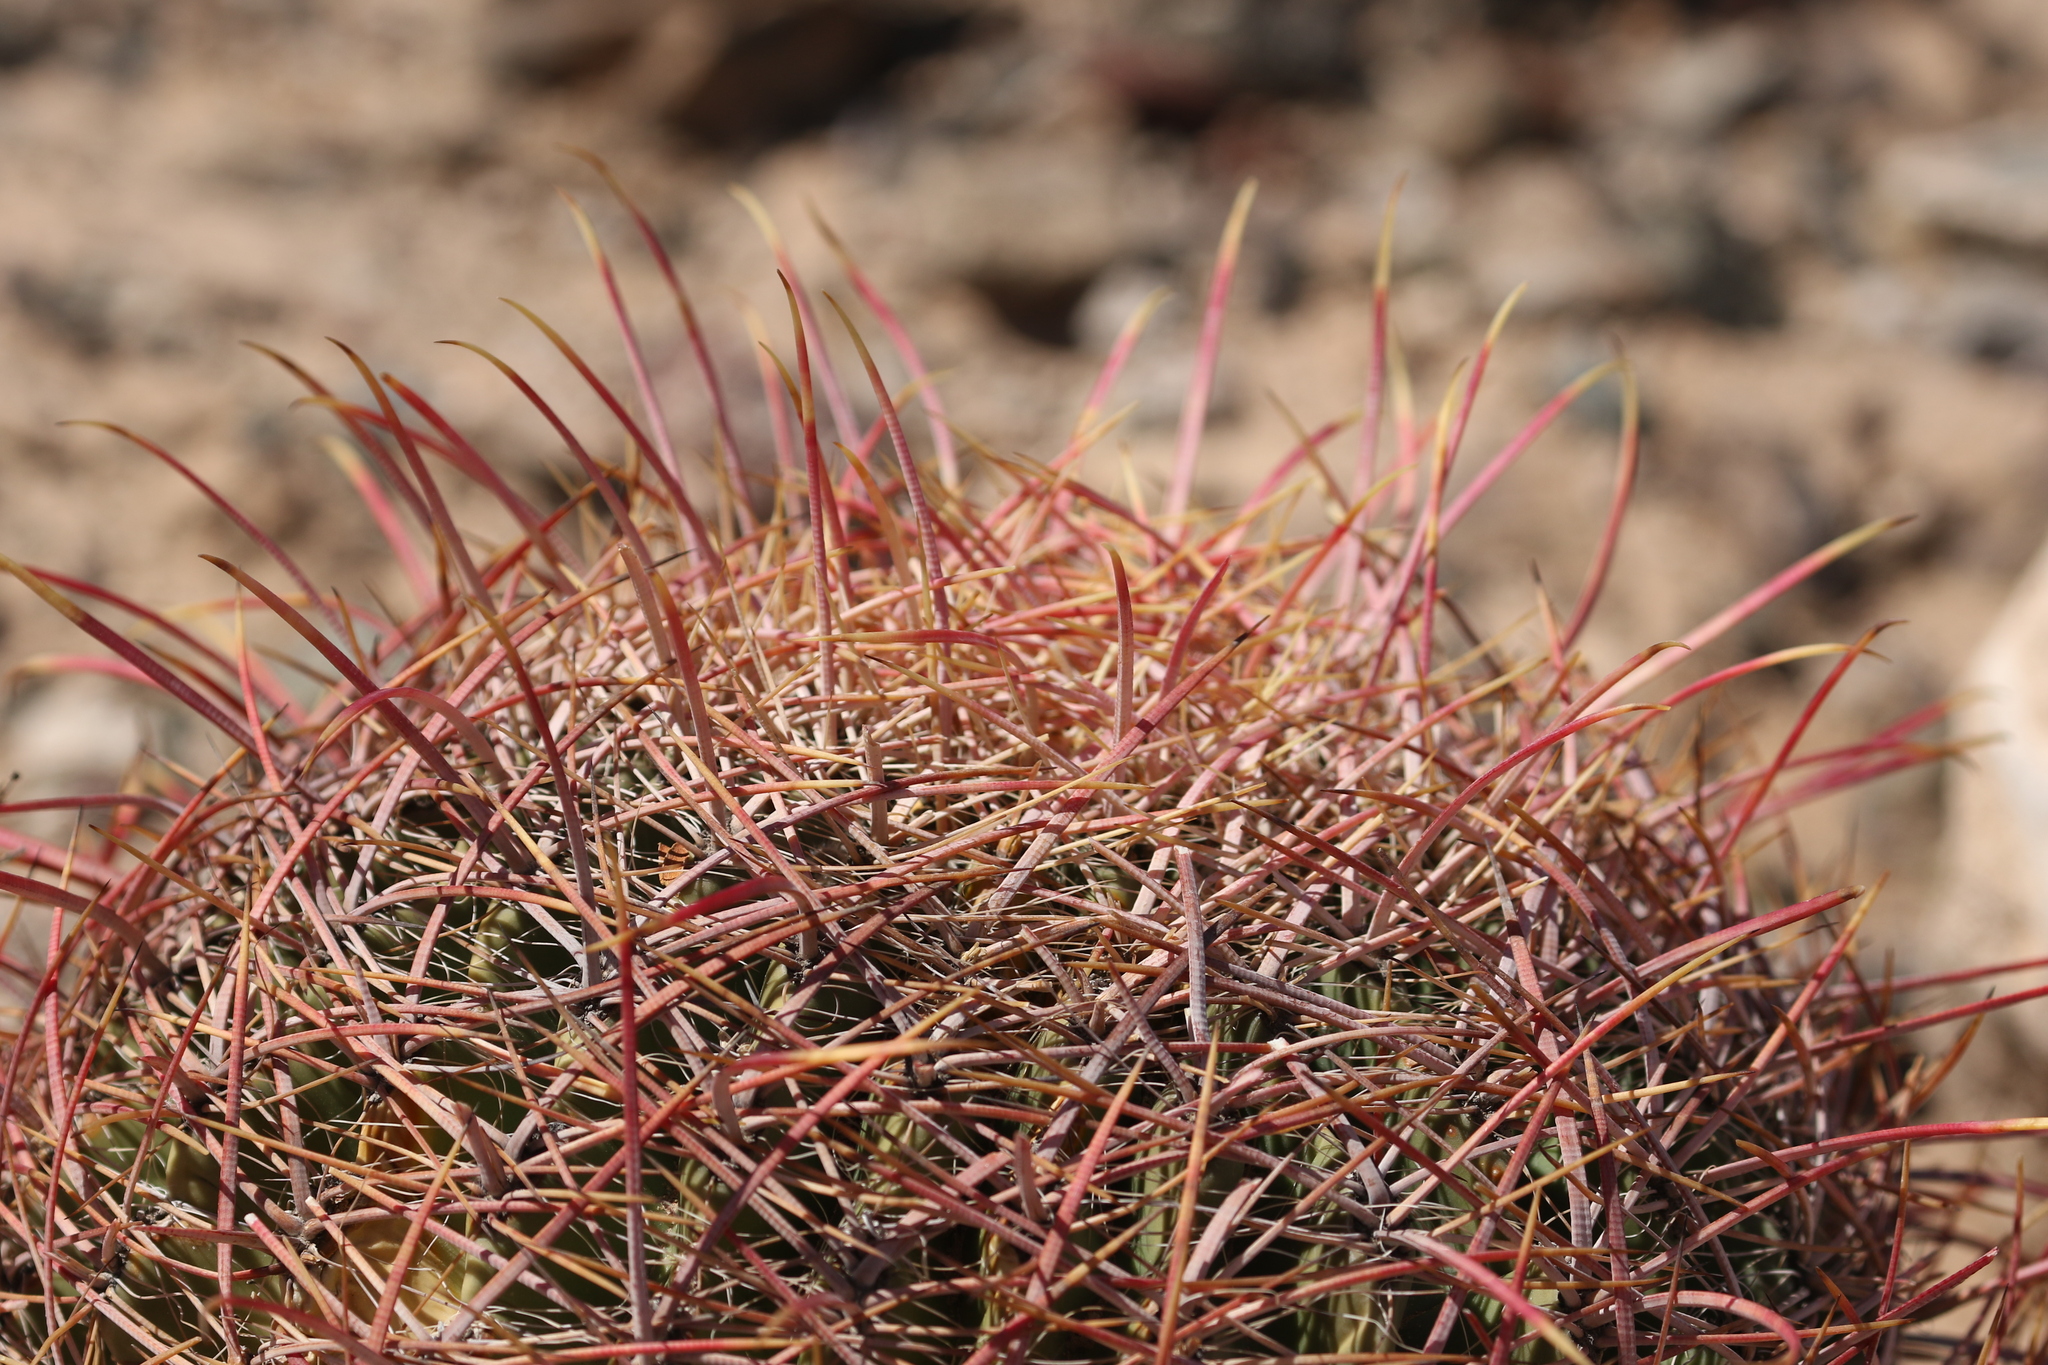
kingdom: Plantae
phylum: Tracheophyta
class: Magnoliopsida
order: Caryophyllales
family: Cactaceae
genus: Ferocactus
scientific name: Ferocactus cylindraceus
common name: California barrel cactus
